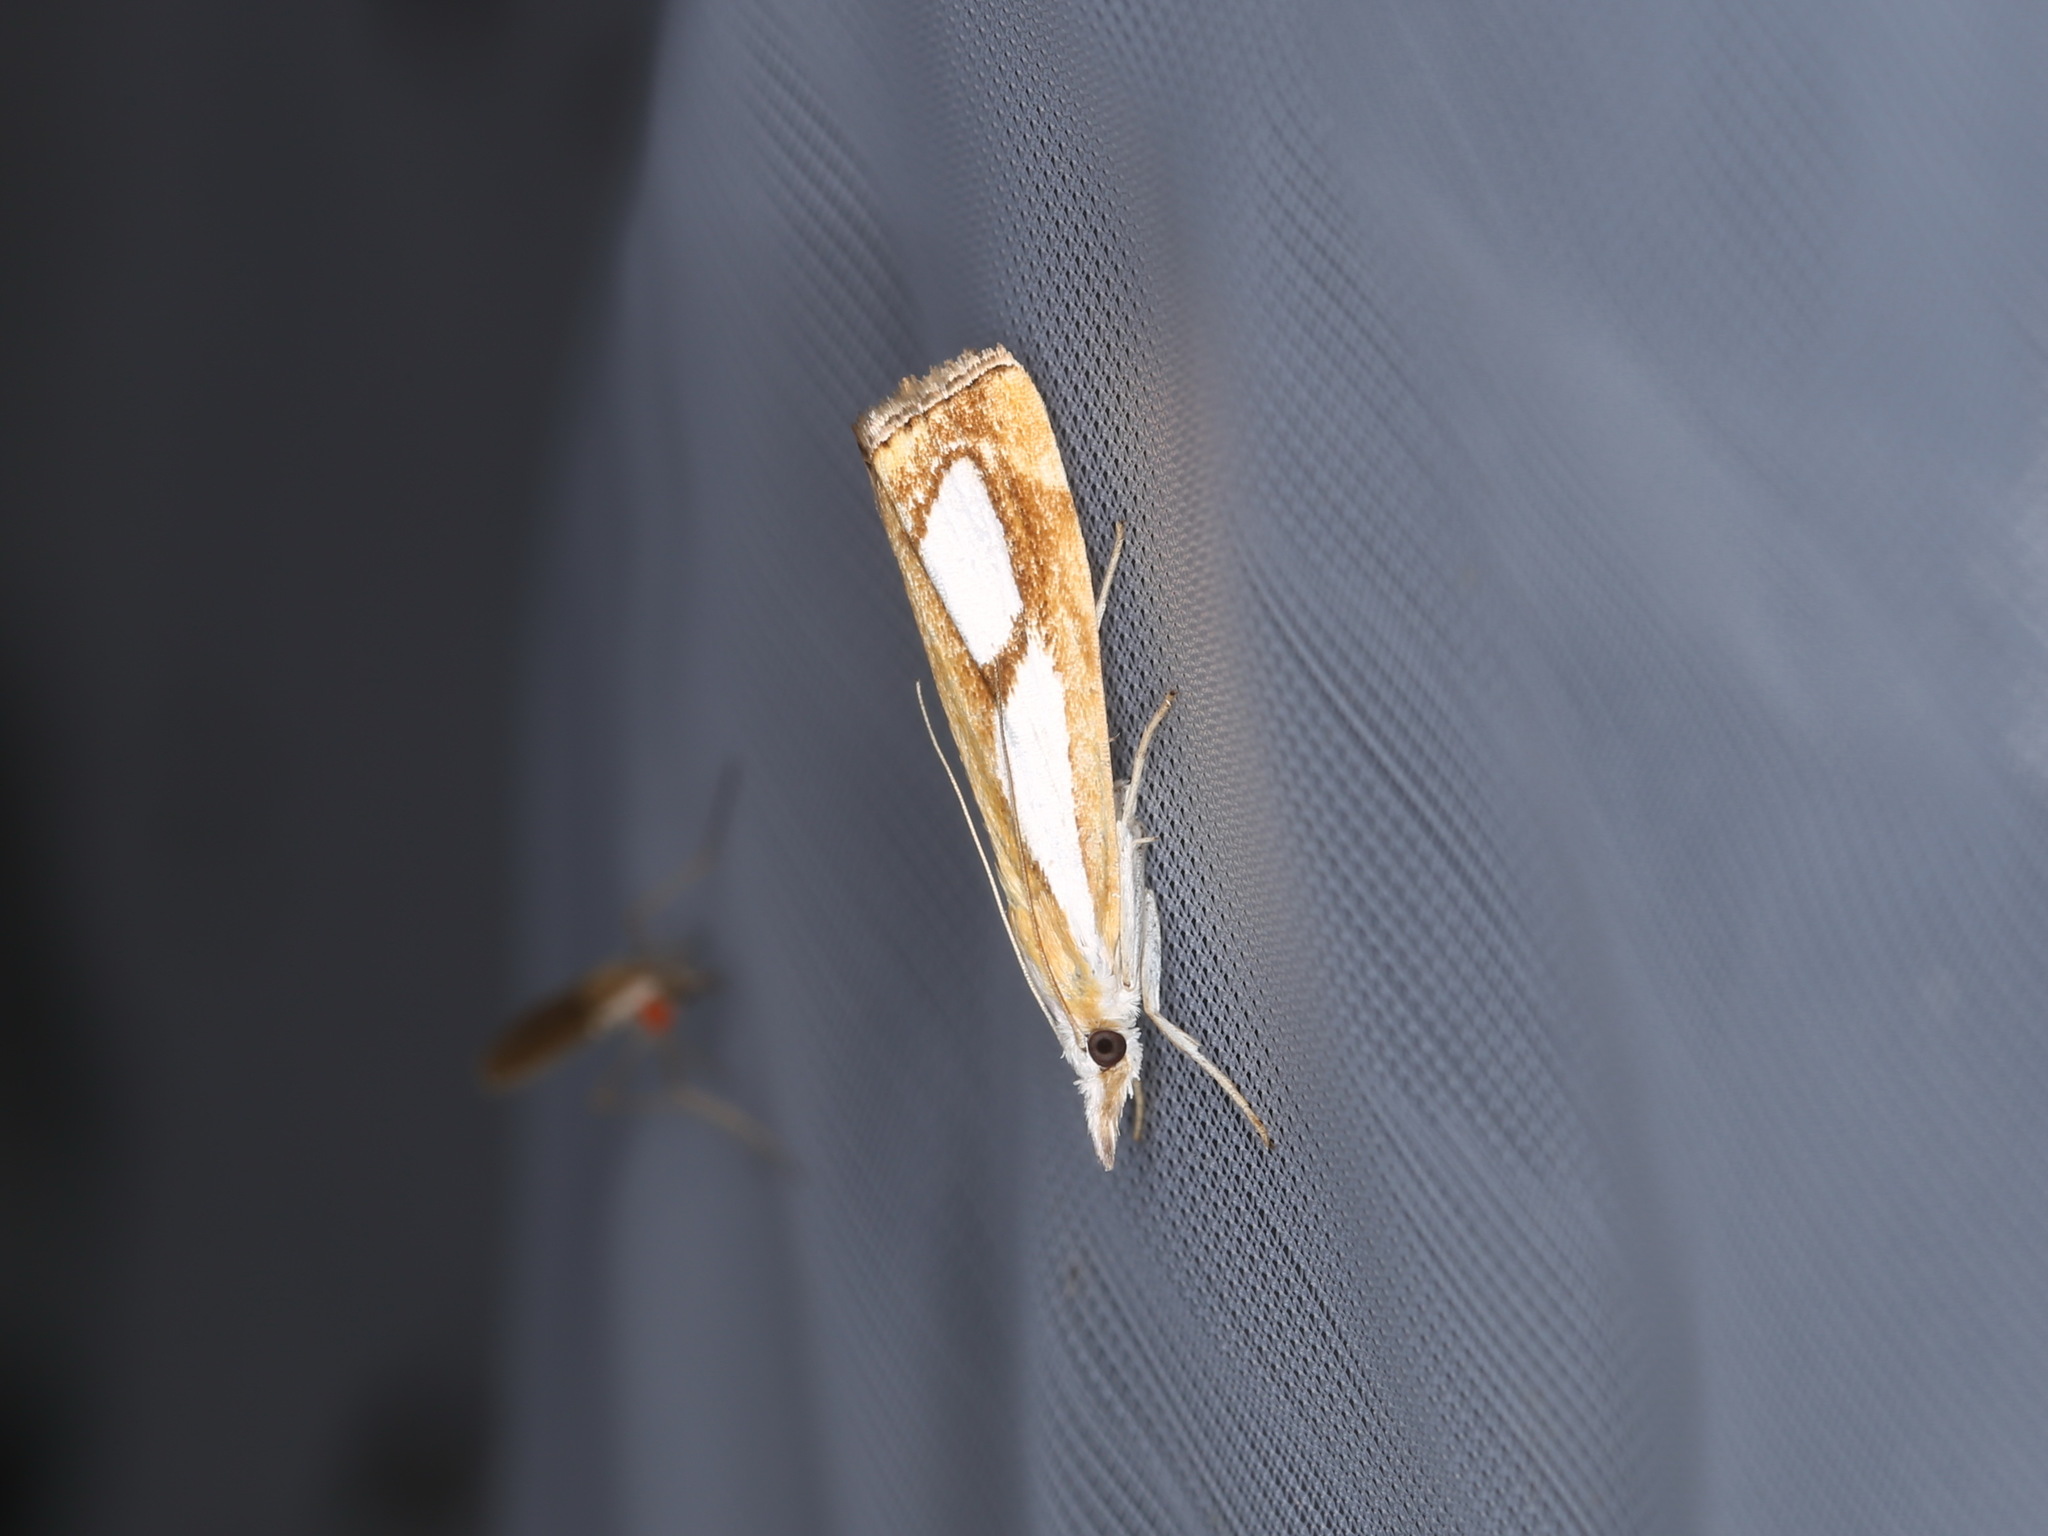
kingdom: Animalia
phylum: Arthropoda
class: Insecta
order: Lepidoptera
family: Crambidae
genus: Catoptria
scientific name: Catoptria pinella
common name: Pearl grass-veneer
